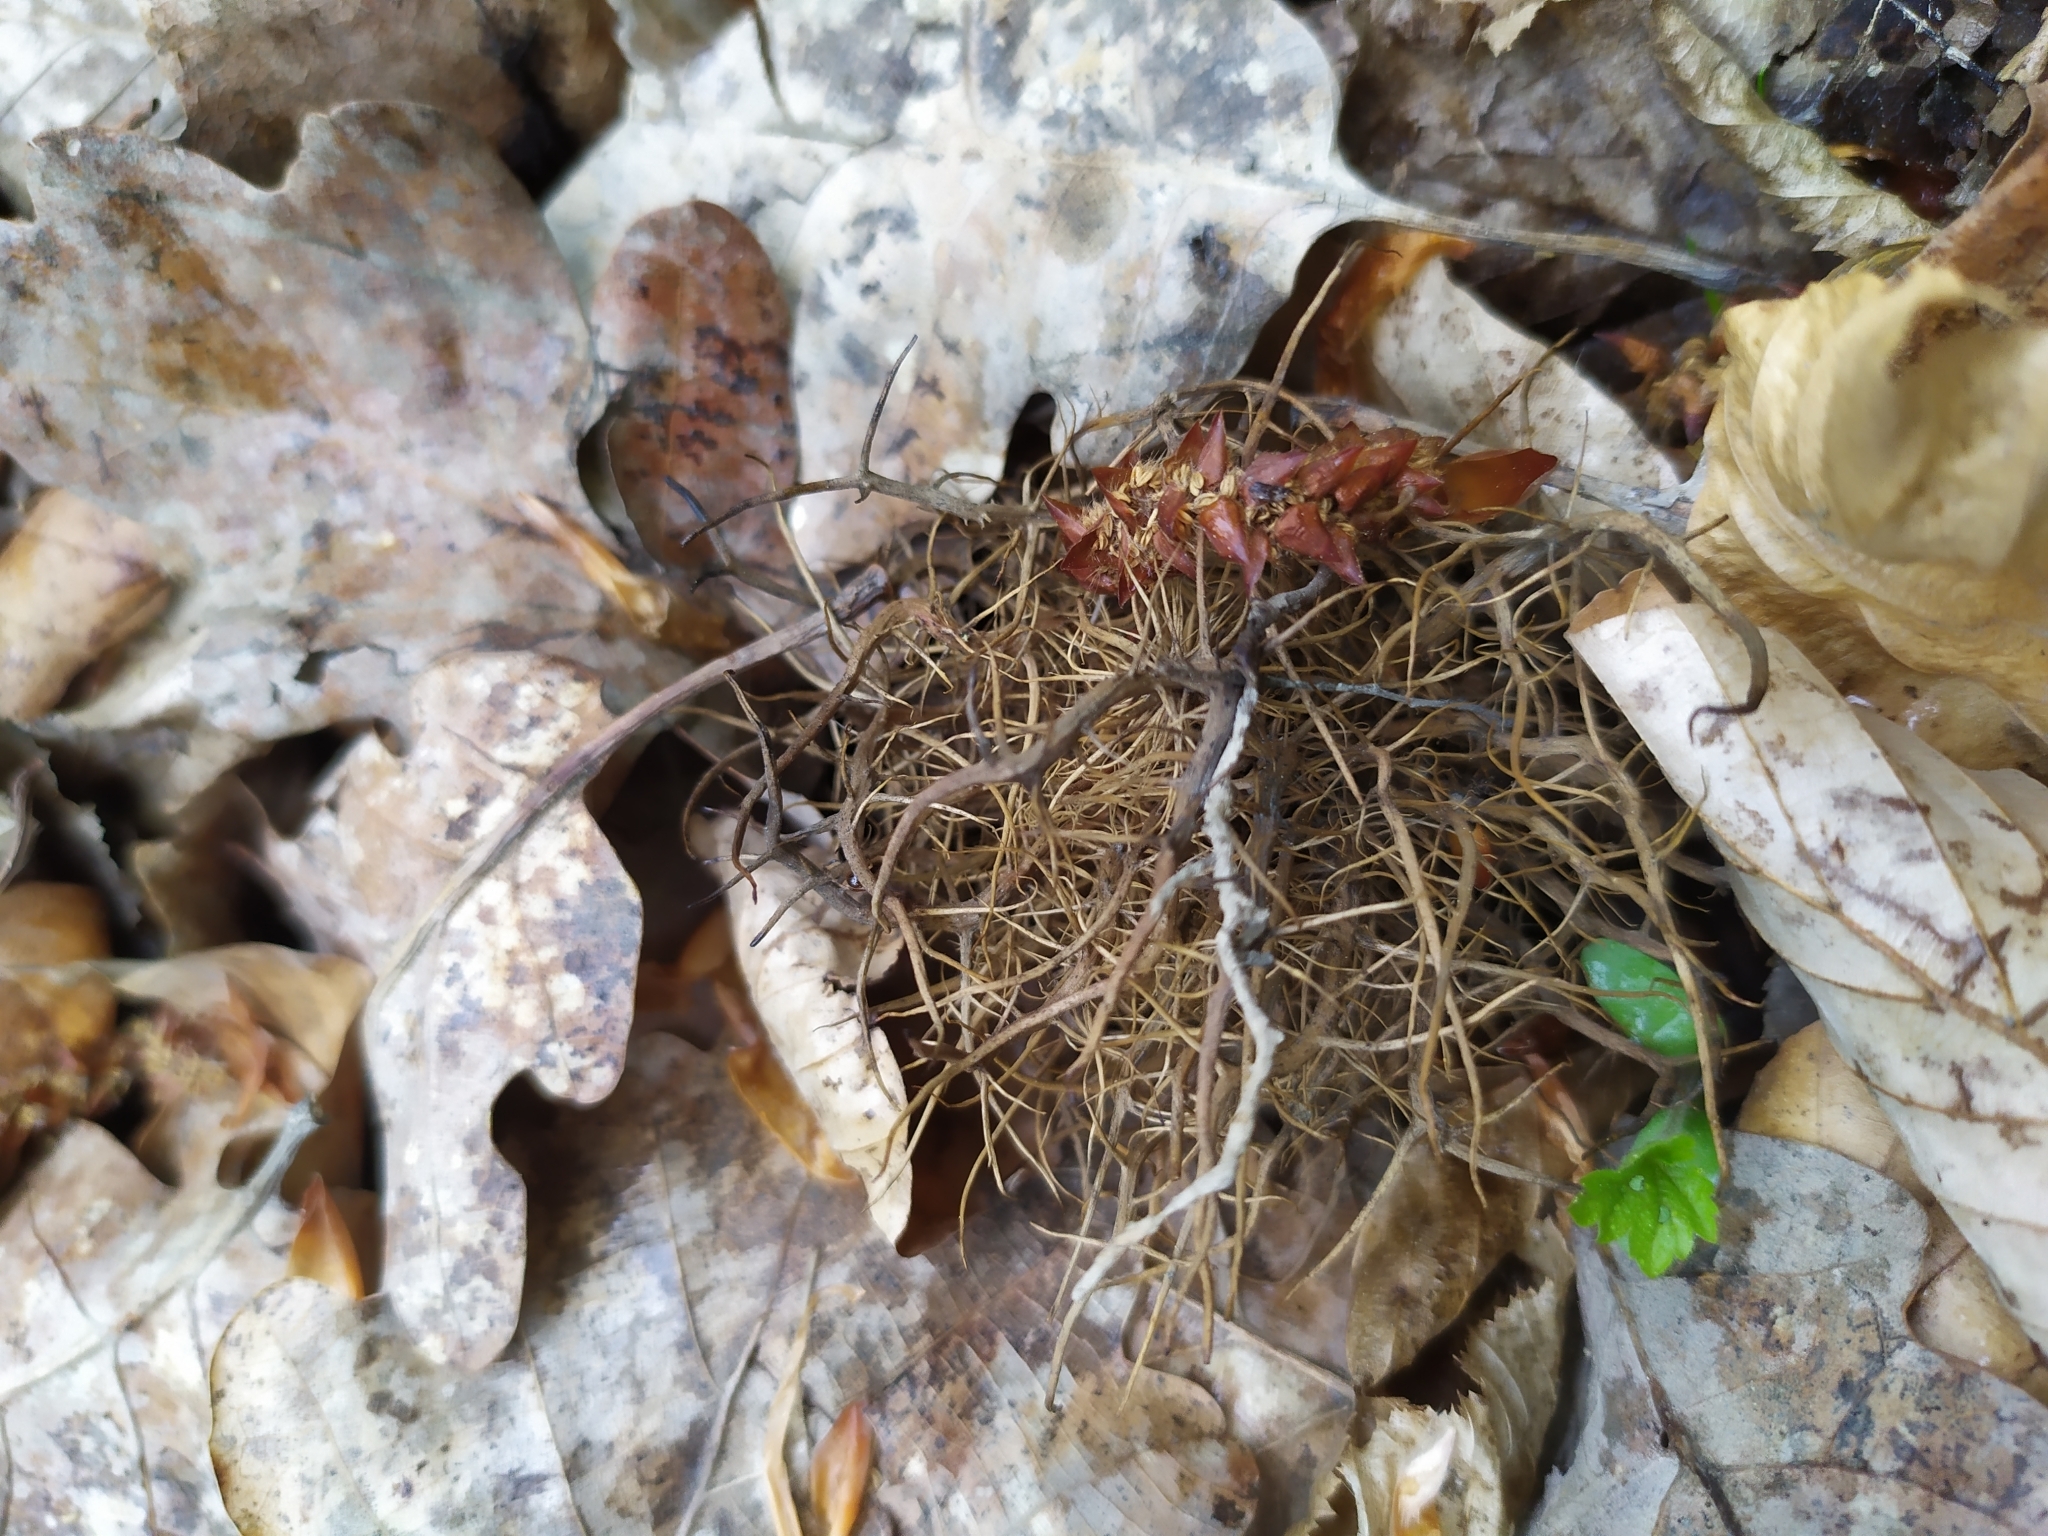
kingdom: Animalia
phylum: Arthropoda
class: Insecta
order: Hymenoptera
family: Cynipidae
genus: Andricus
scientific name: Andricus caputmedusae
